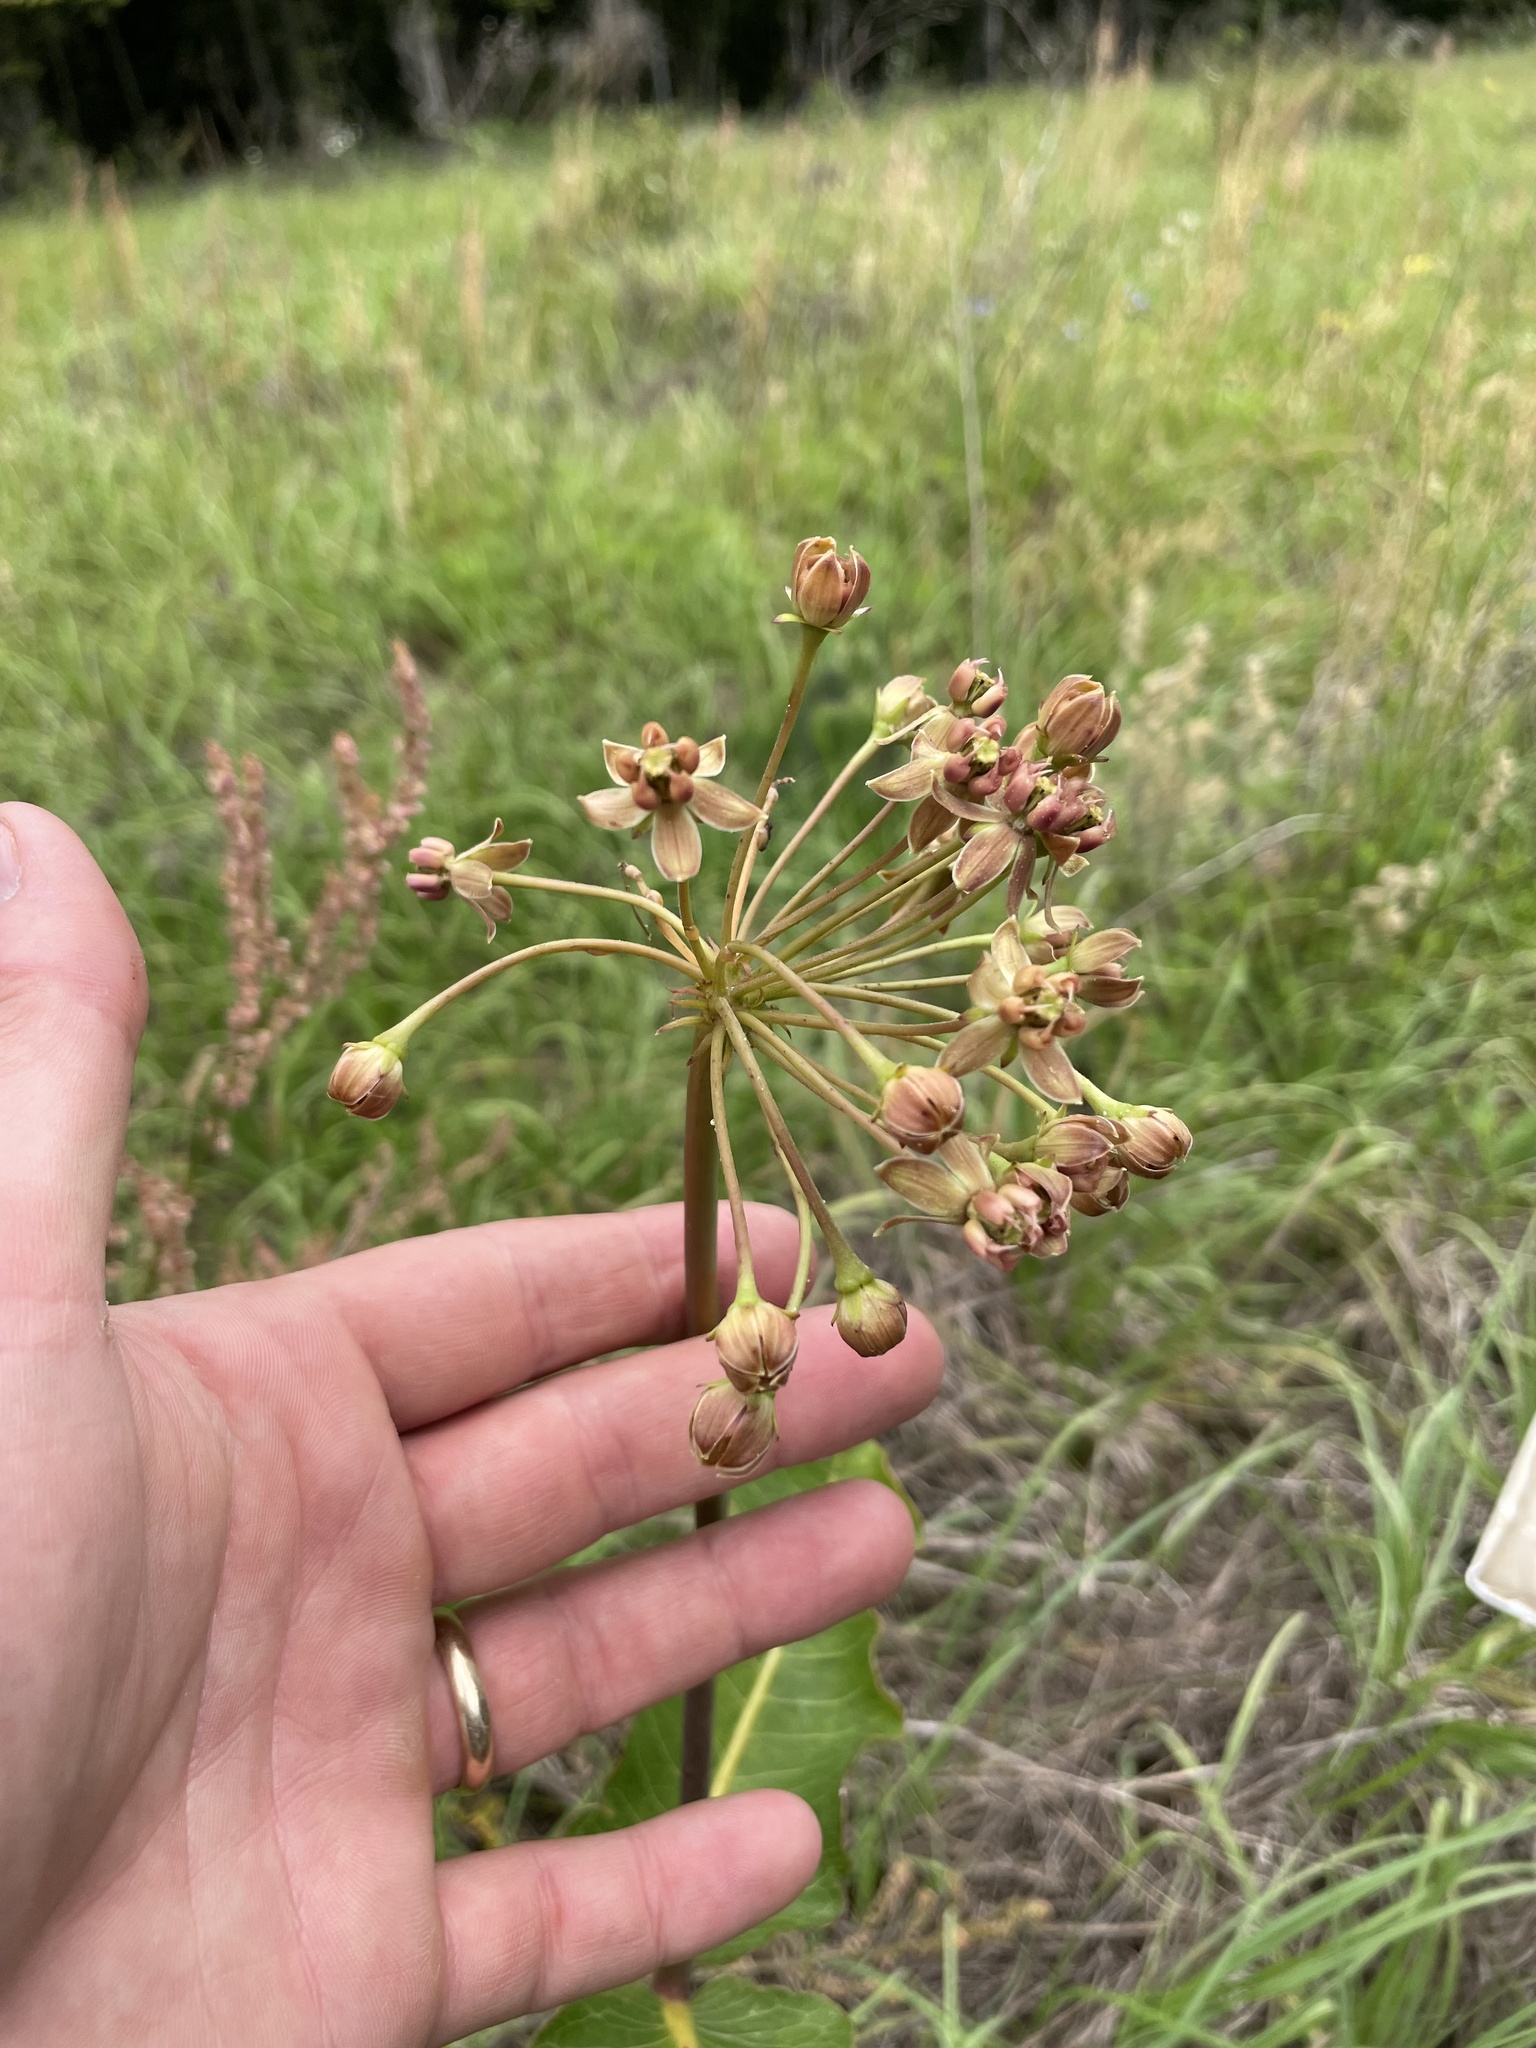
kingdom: Plantae
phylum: Tracheophyta
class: Magnoliopsida
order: Gentianales
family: Apocynaceae
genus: Asclepias
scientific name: Asclepias amplexicaulis
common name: Blunt-leaf milkweed
